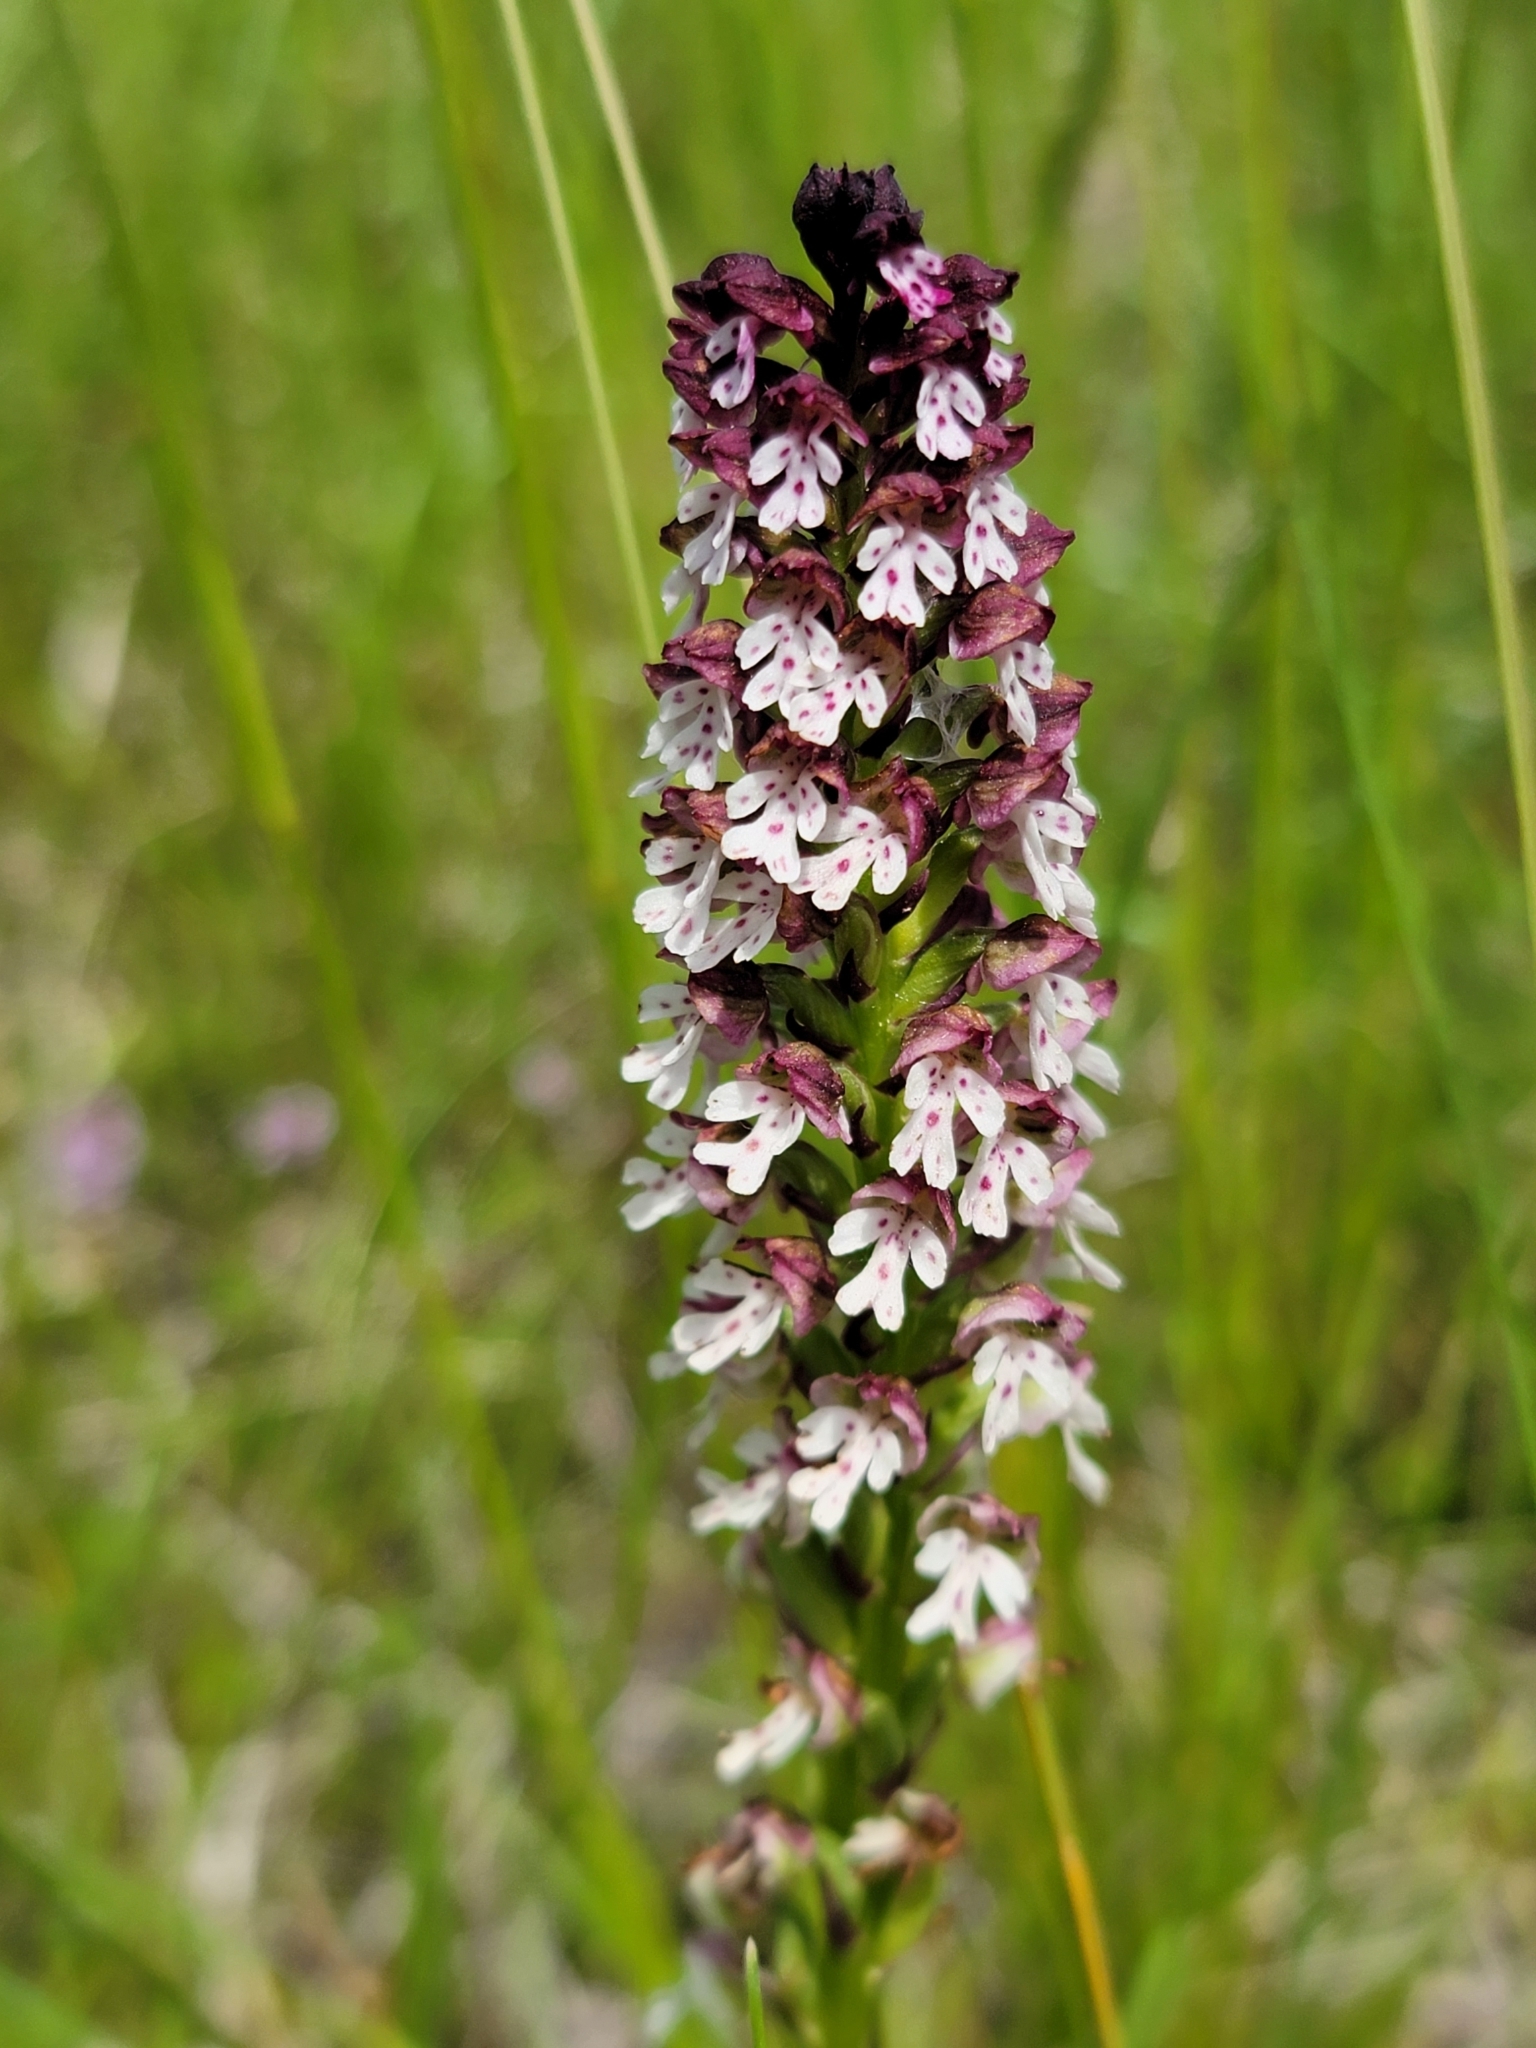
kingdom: Plantae
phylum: Tracheophyta
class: Liliopsida
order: Asparagales
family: Orchidaceae
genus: Neotinea
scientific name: Neotinea ustulata
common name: Burnt orchid
